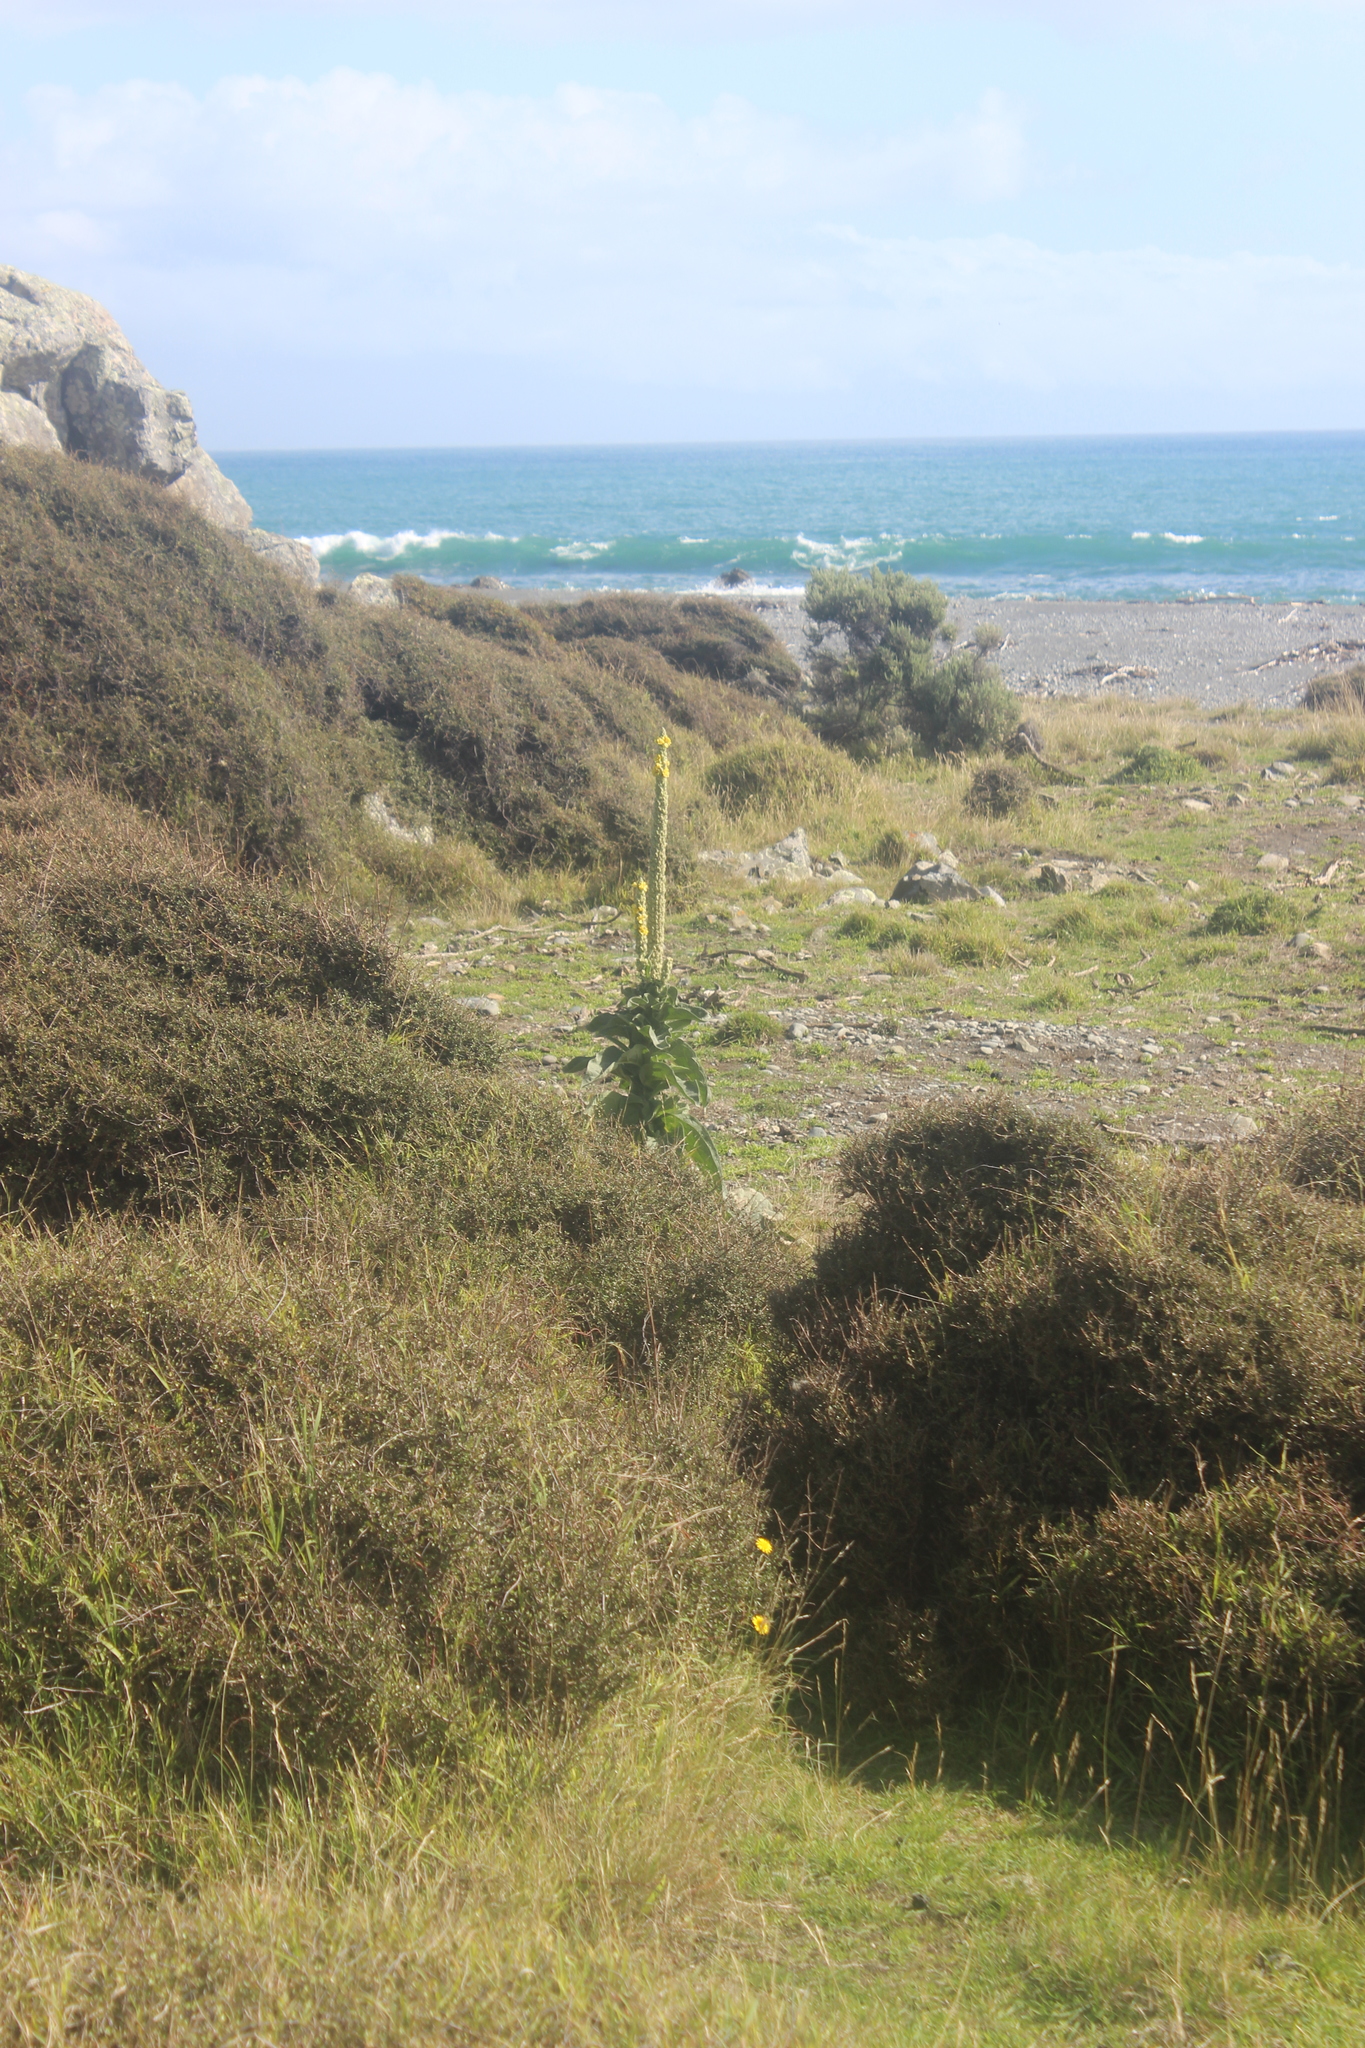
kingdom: Plantae
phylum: Tracheophyta
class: Magnoliopsida
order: Lamiales
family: Scrophulariaceae
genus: Verbascum
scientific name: Verbascum thapsus
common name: Common mullein
